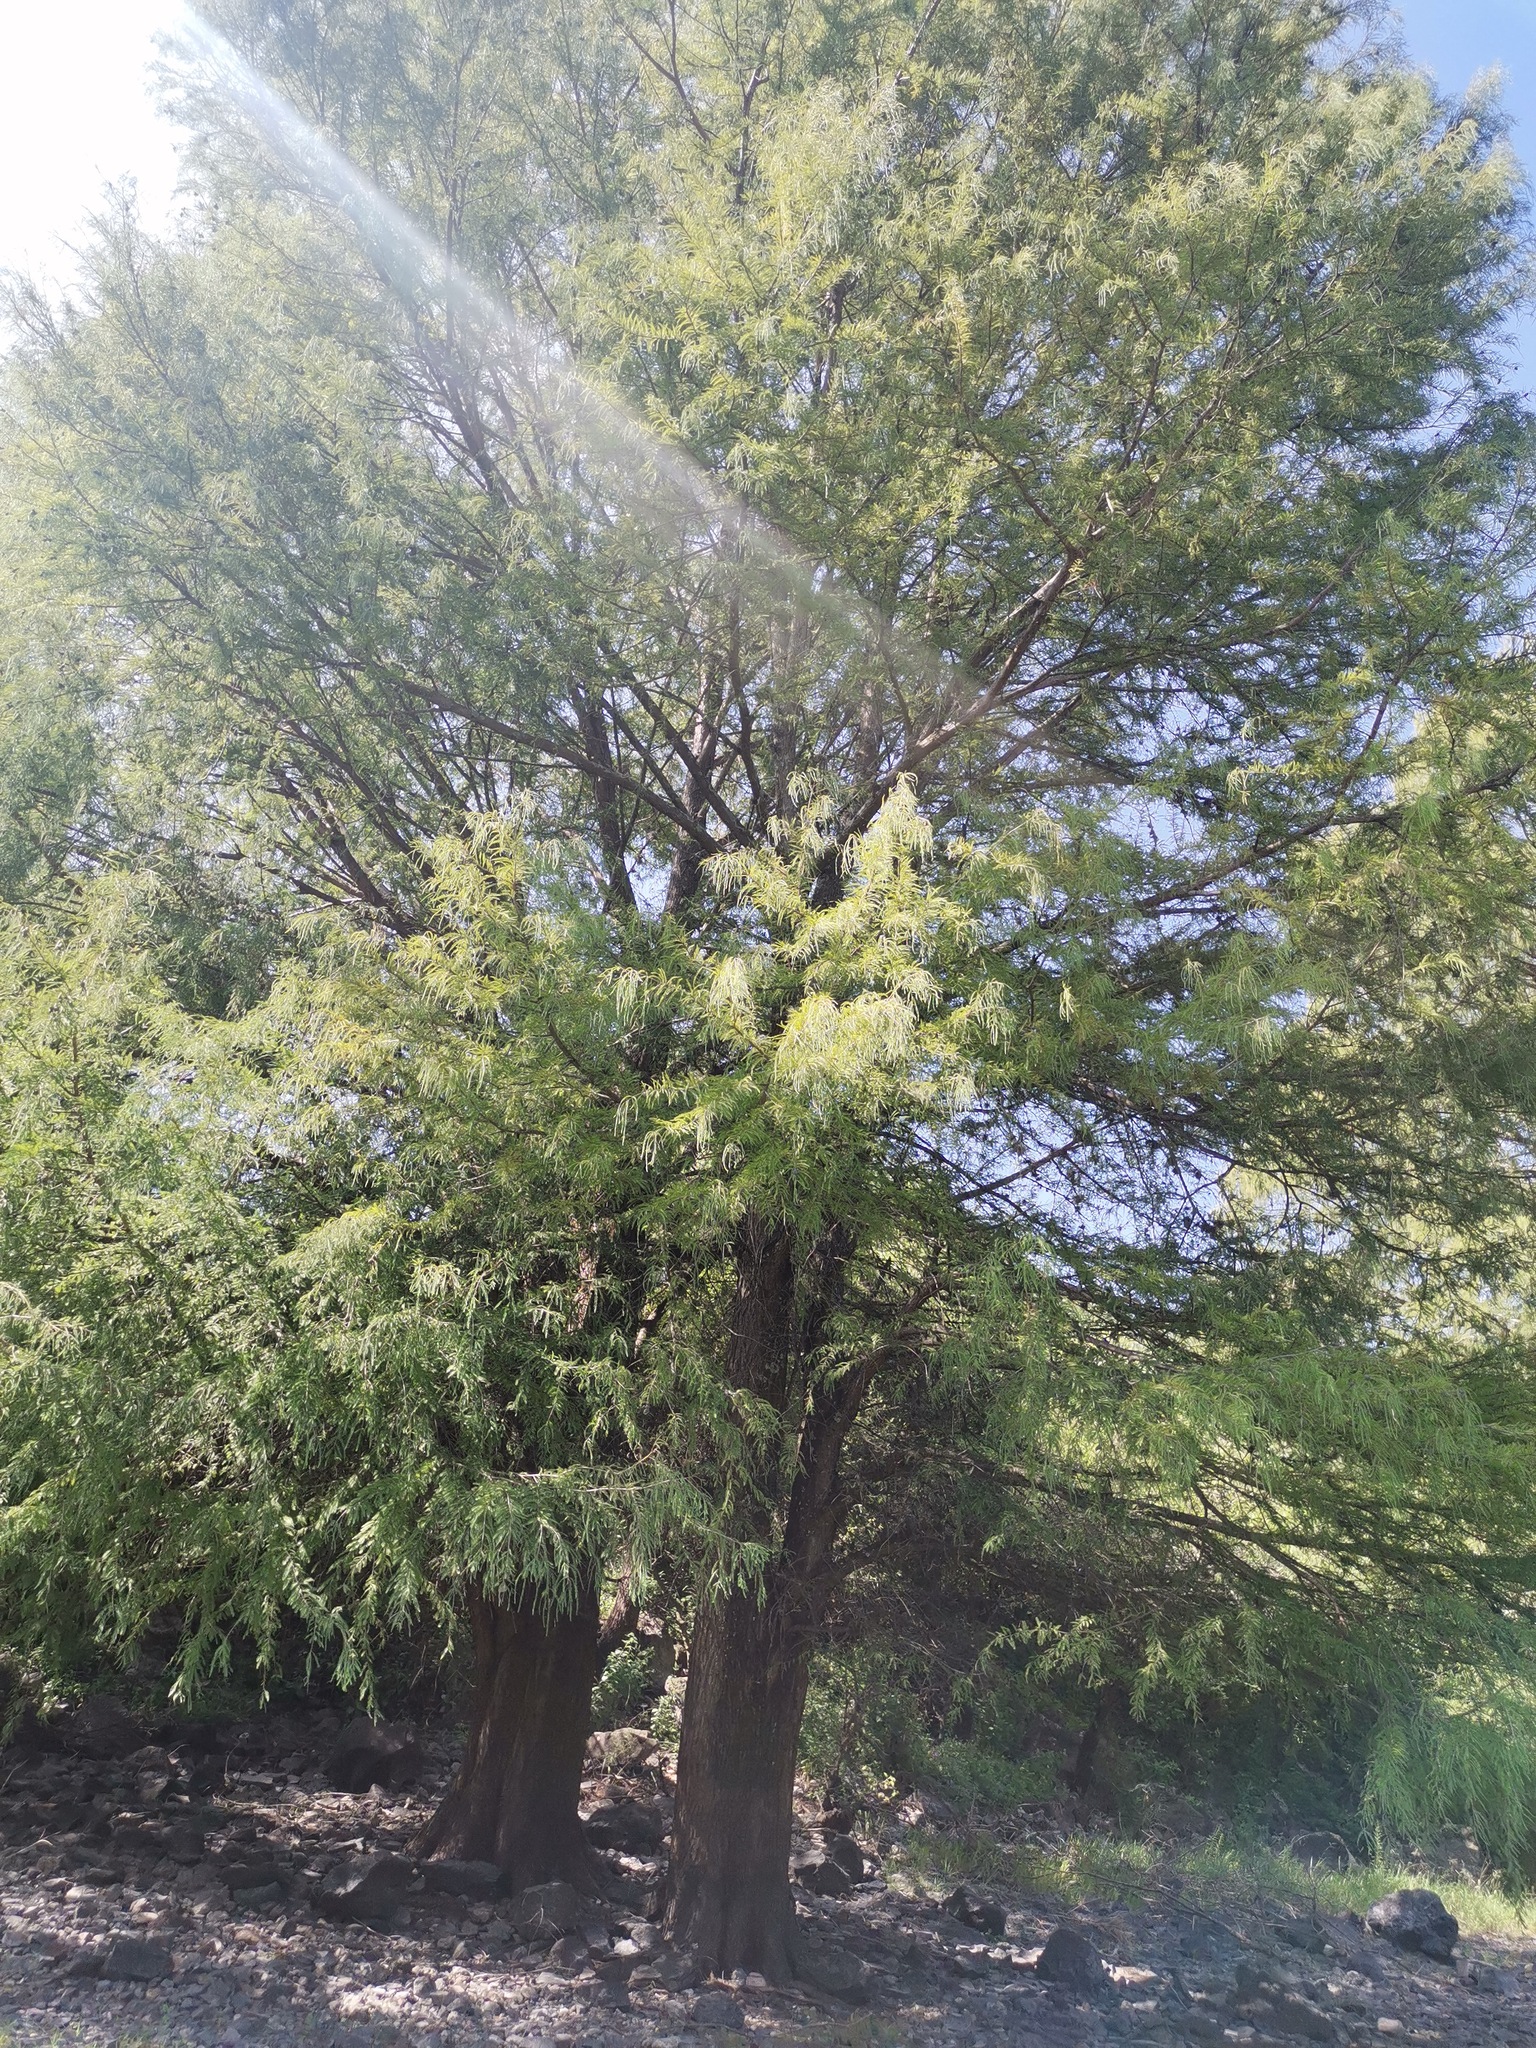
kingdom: Plantae
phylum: Tracheophyta
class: Pinopsida
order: Pinales
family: Cupressaceae
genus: Taxodium
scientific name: Taxodium mucronatum
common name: Montezume bald cypress
